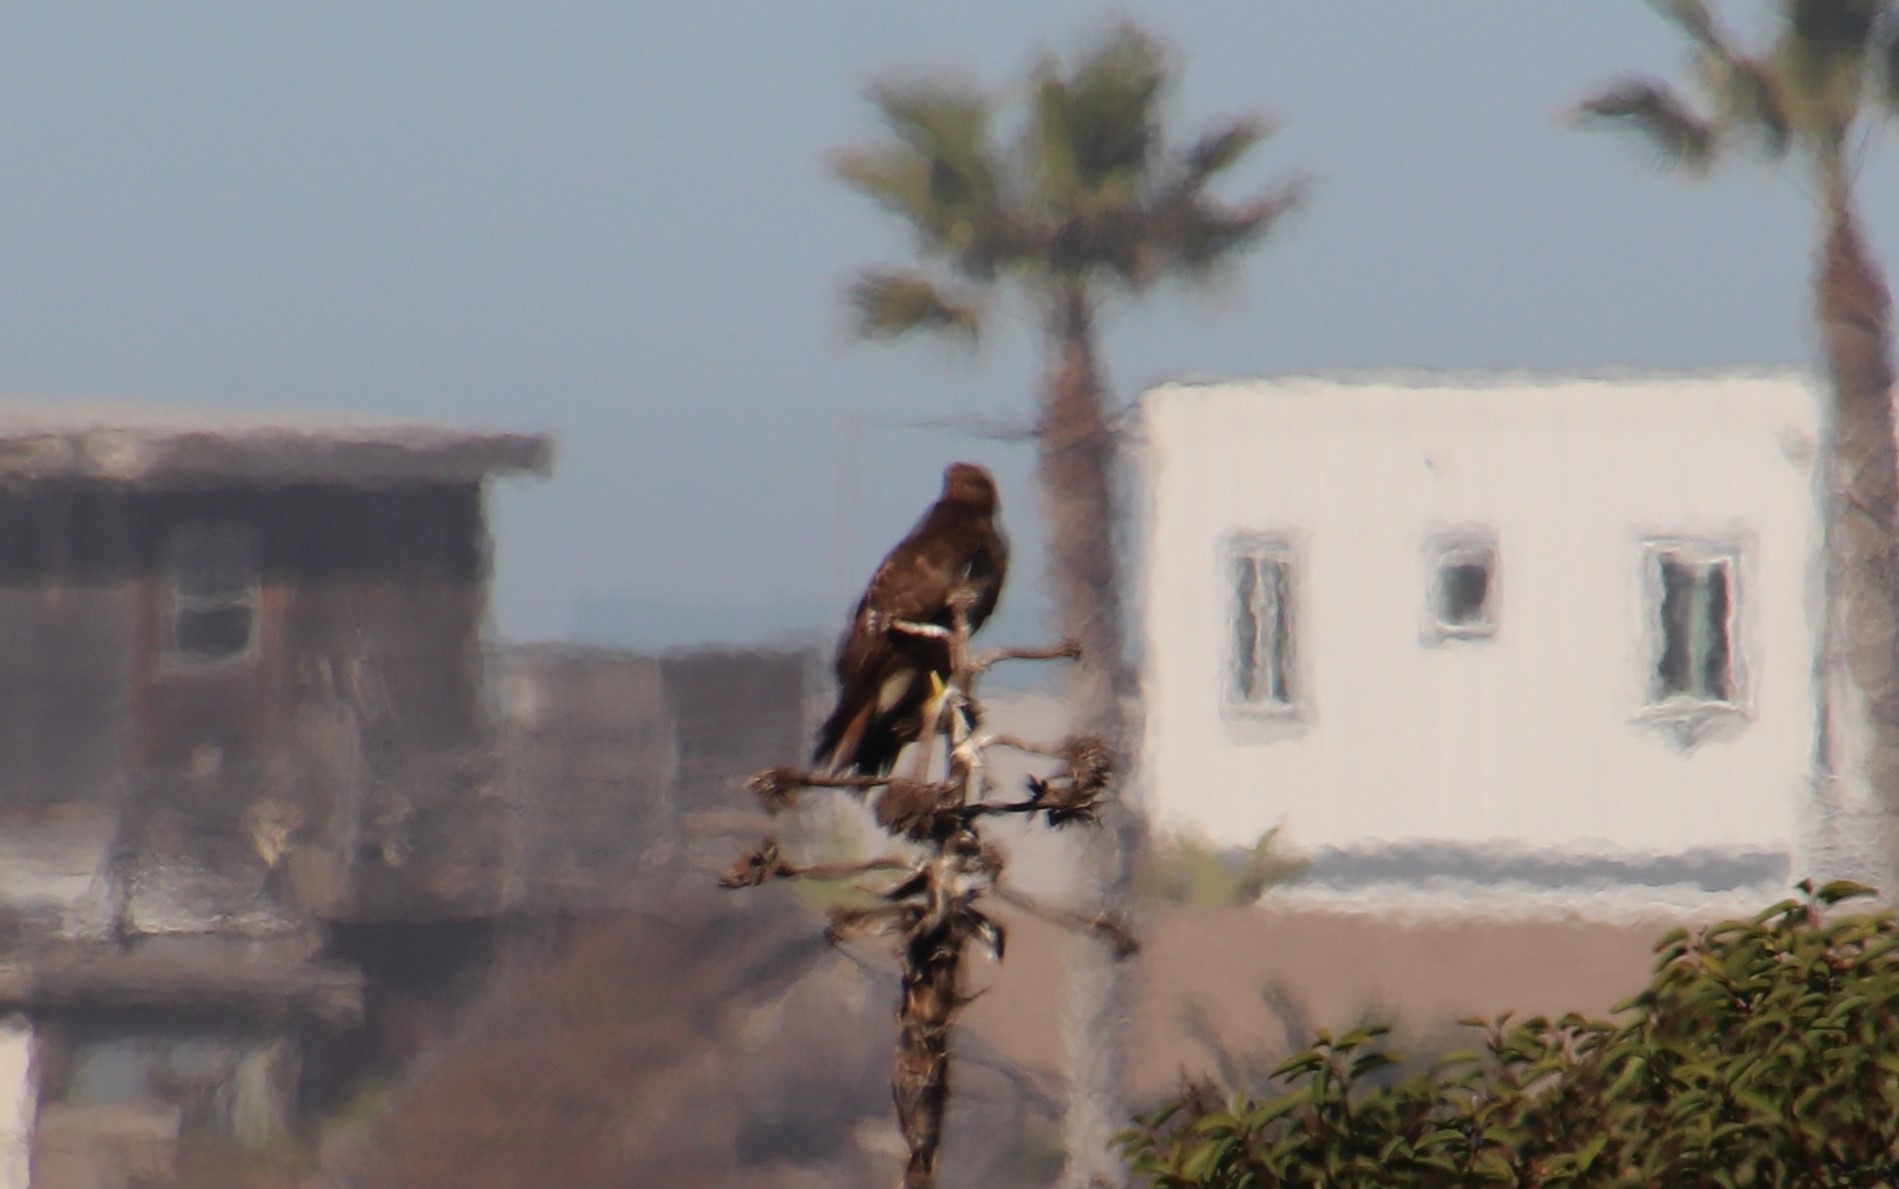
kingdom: Animalia
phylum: Chordata
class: Aves
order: Accipitriformes
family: Accipitridae
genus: Buteo
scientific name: Buteo jamaicensis
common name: Red-tailed hawk
